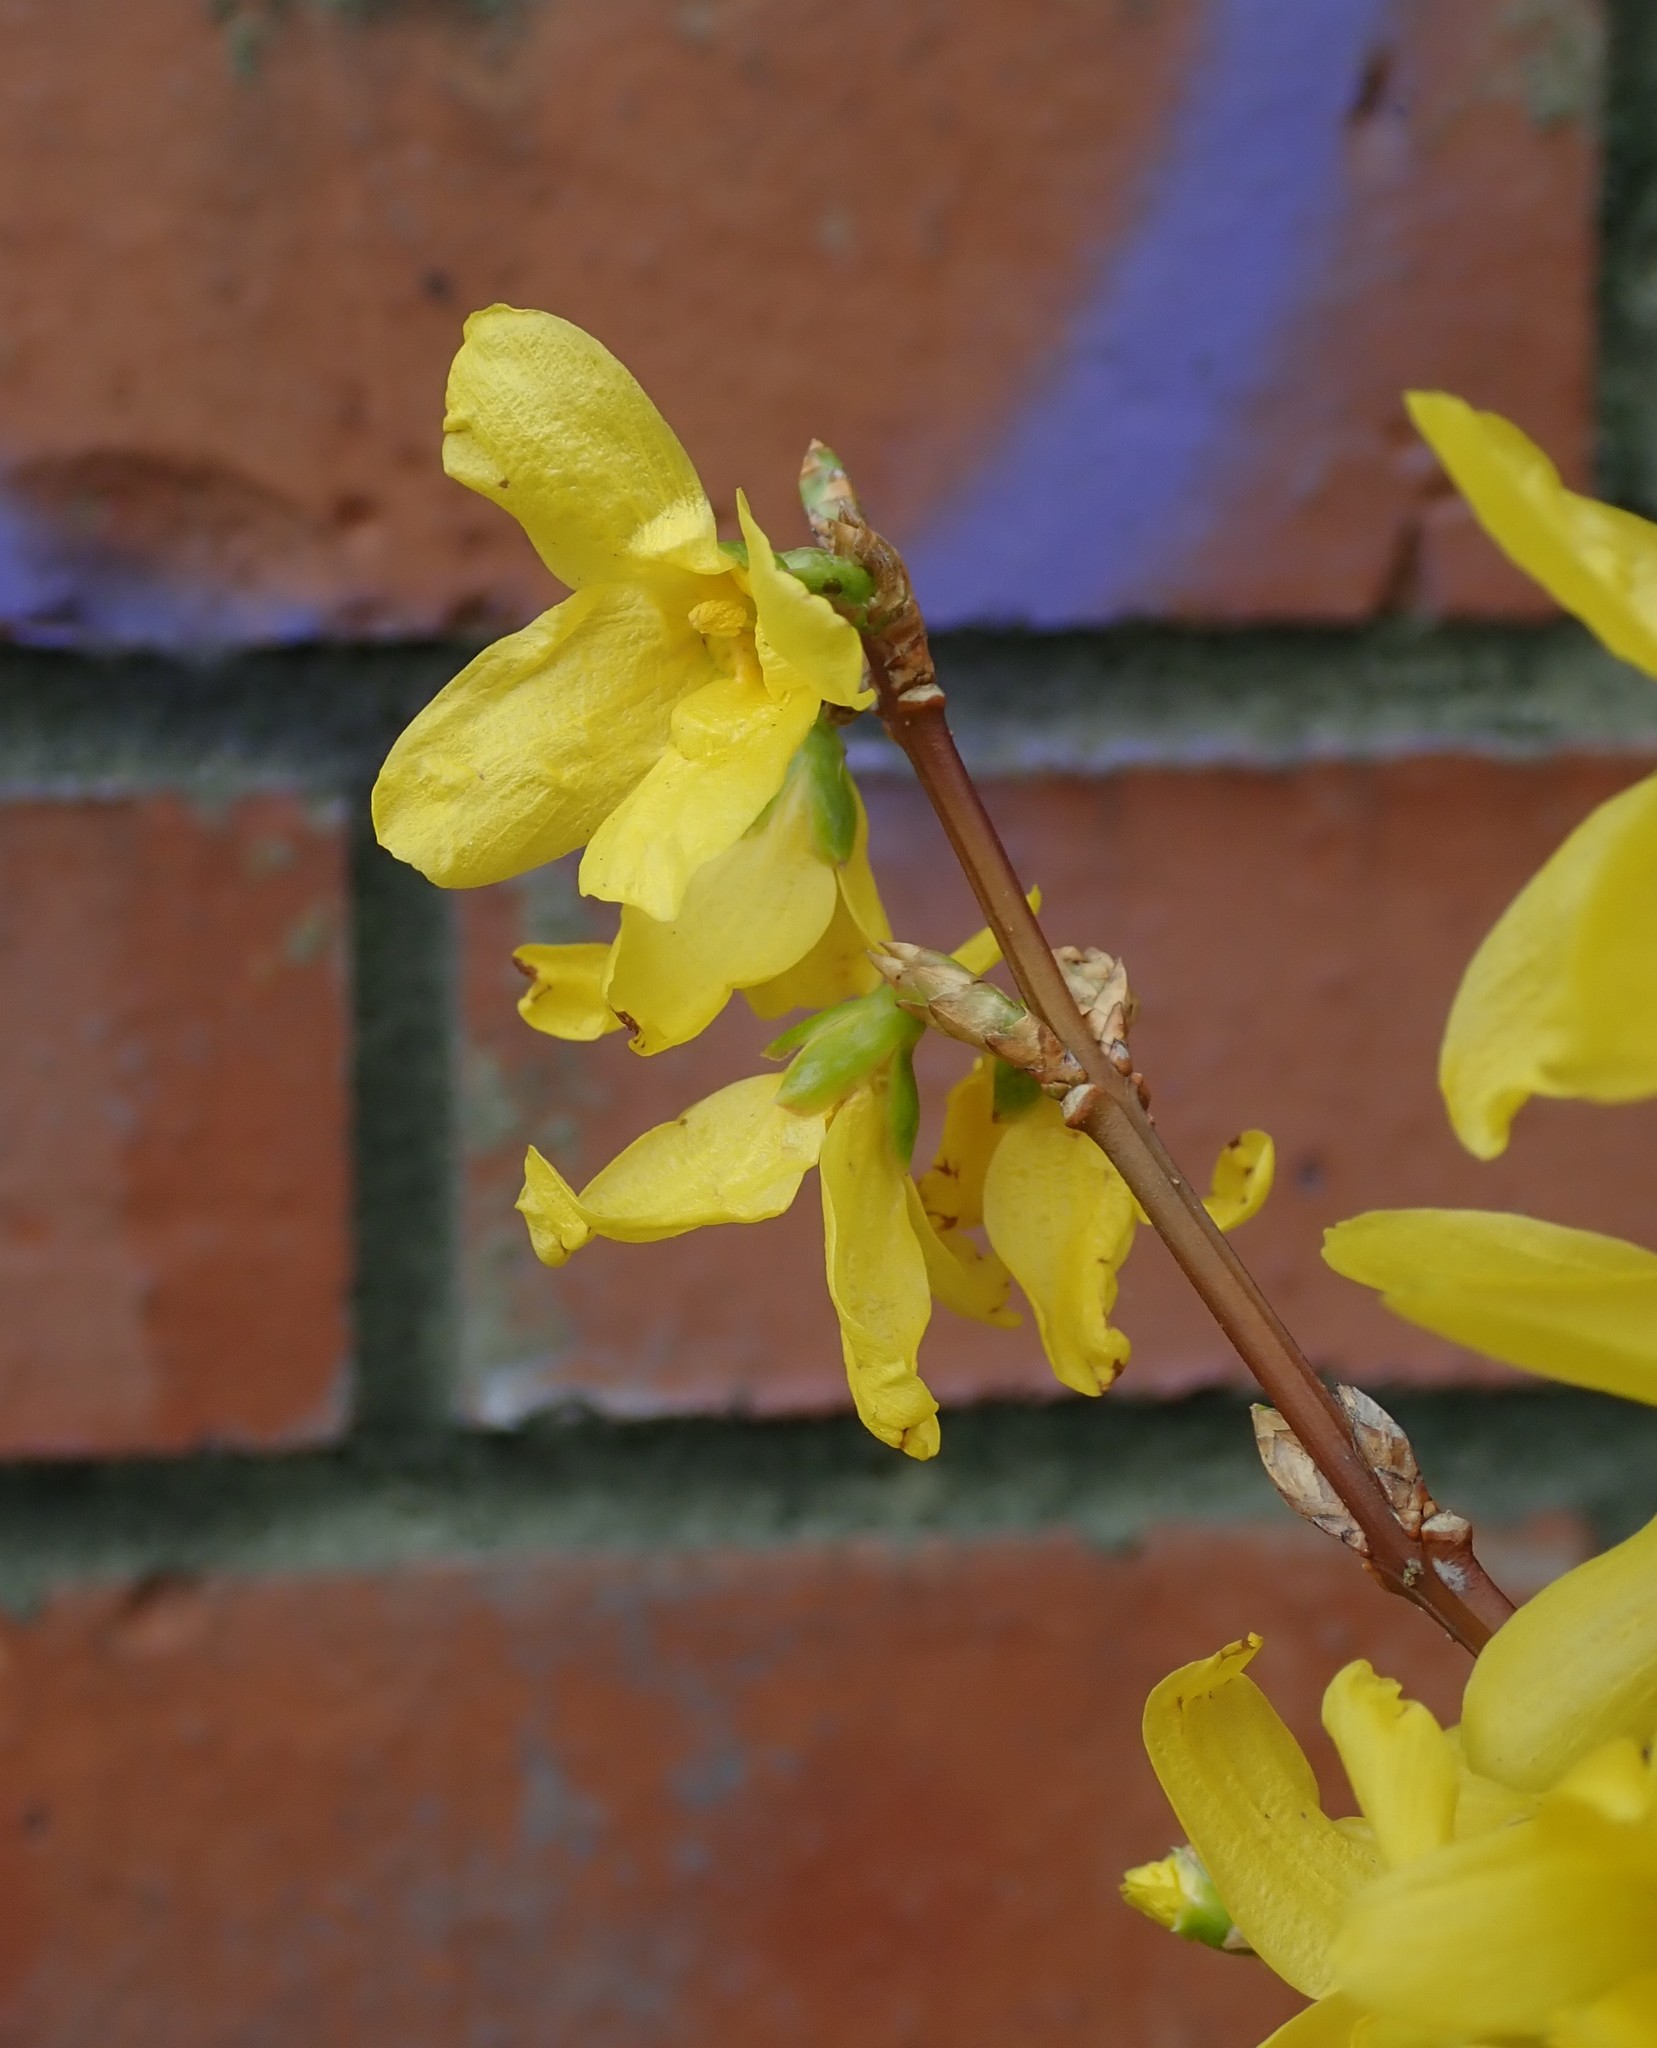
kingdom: Plantae
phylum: Tracheophyta
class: Magnoliopsida
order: Lamiales
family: Oleaceae
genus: Forsythia
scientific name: Forsythia intermedia
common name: Forsythia
